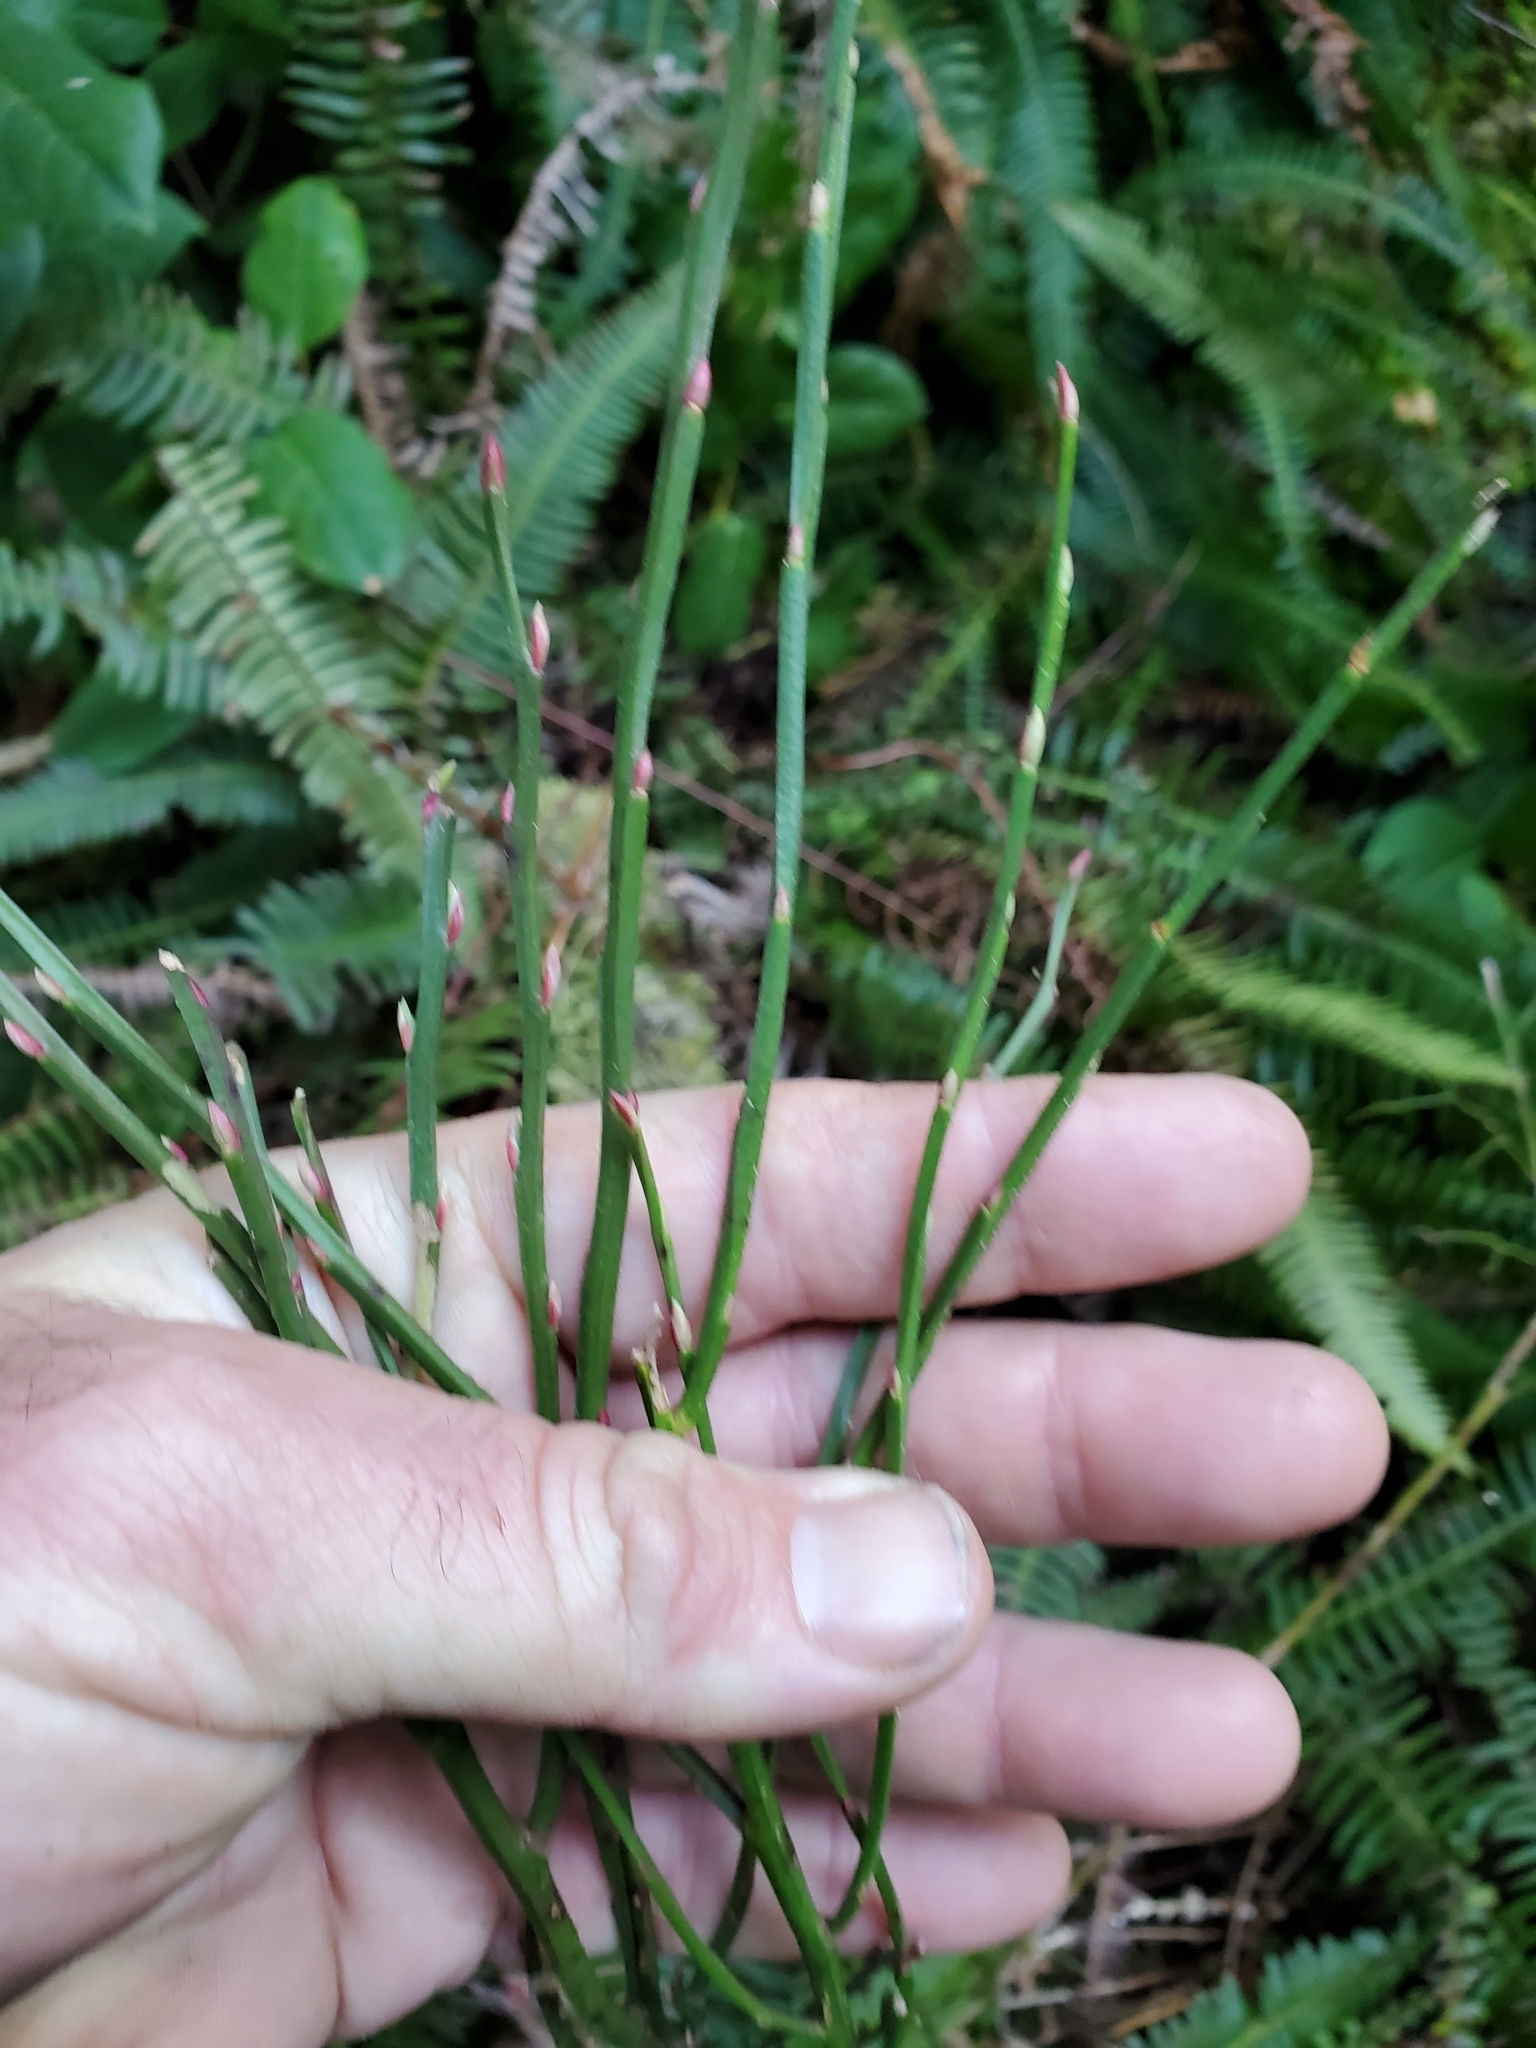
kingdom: Plantae
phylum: Tracheophyta
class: Magnoliopsida
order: Ericales
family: Ericaceae
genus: Vaccinium
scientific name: Vaccinium parvifolium
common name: Red-huckleberry
